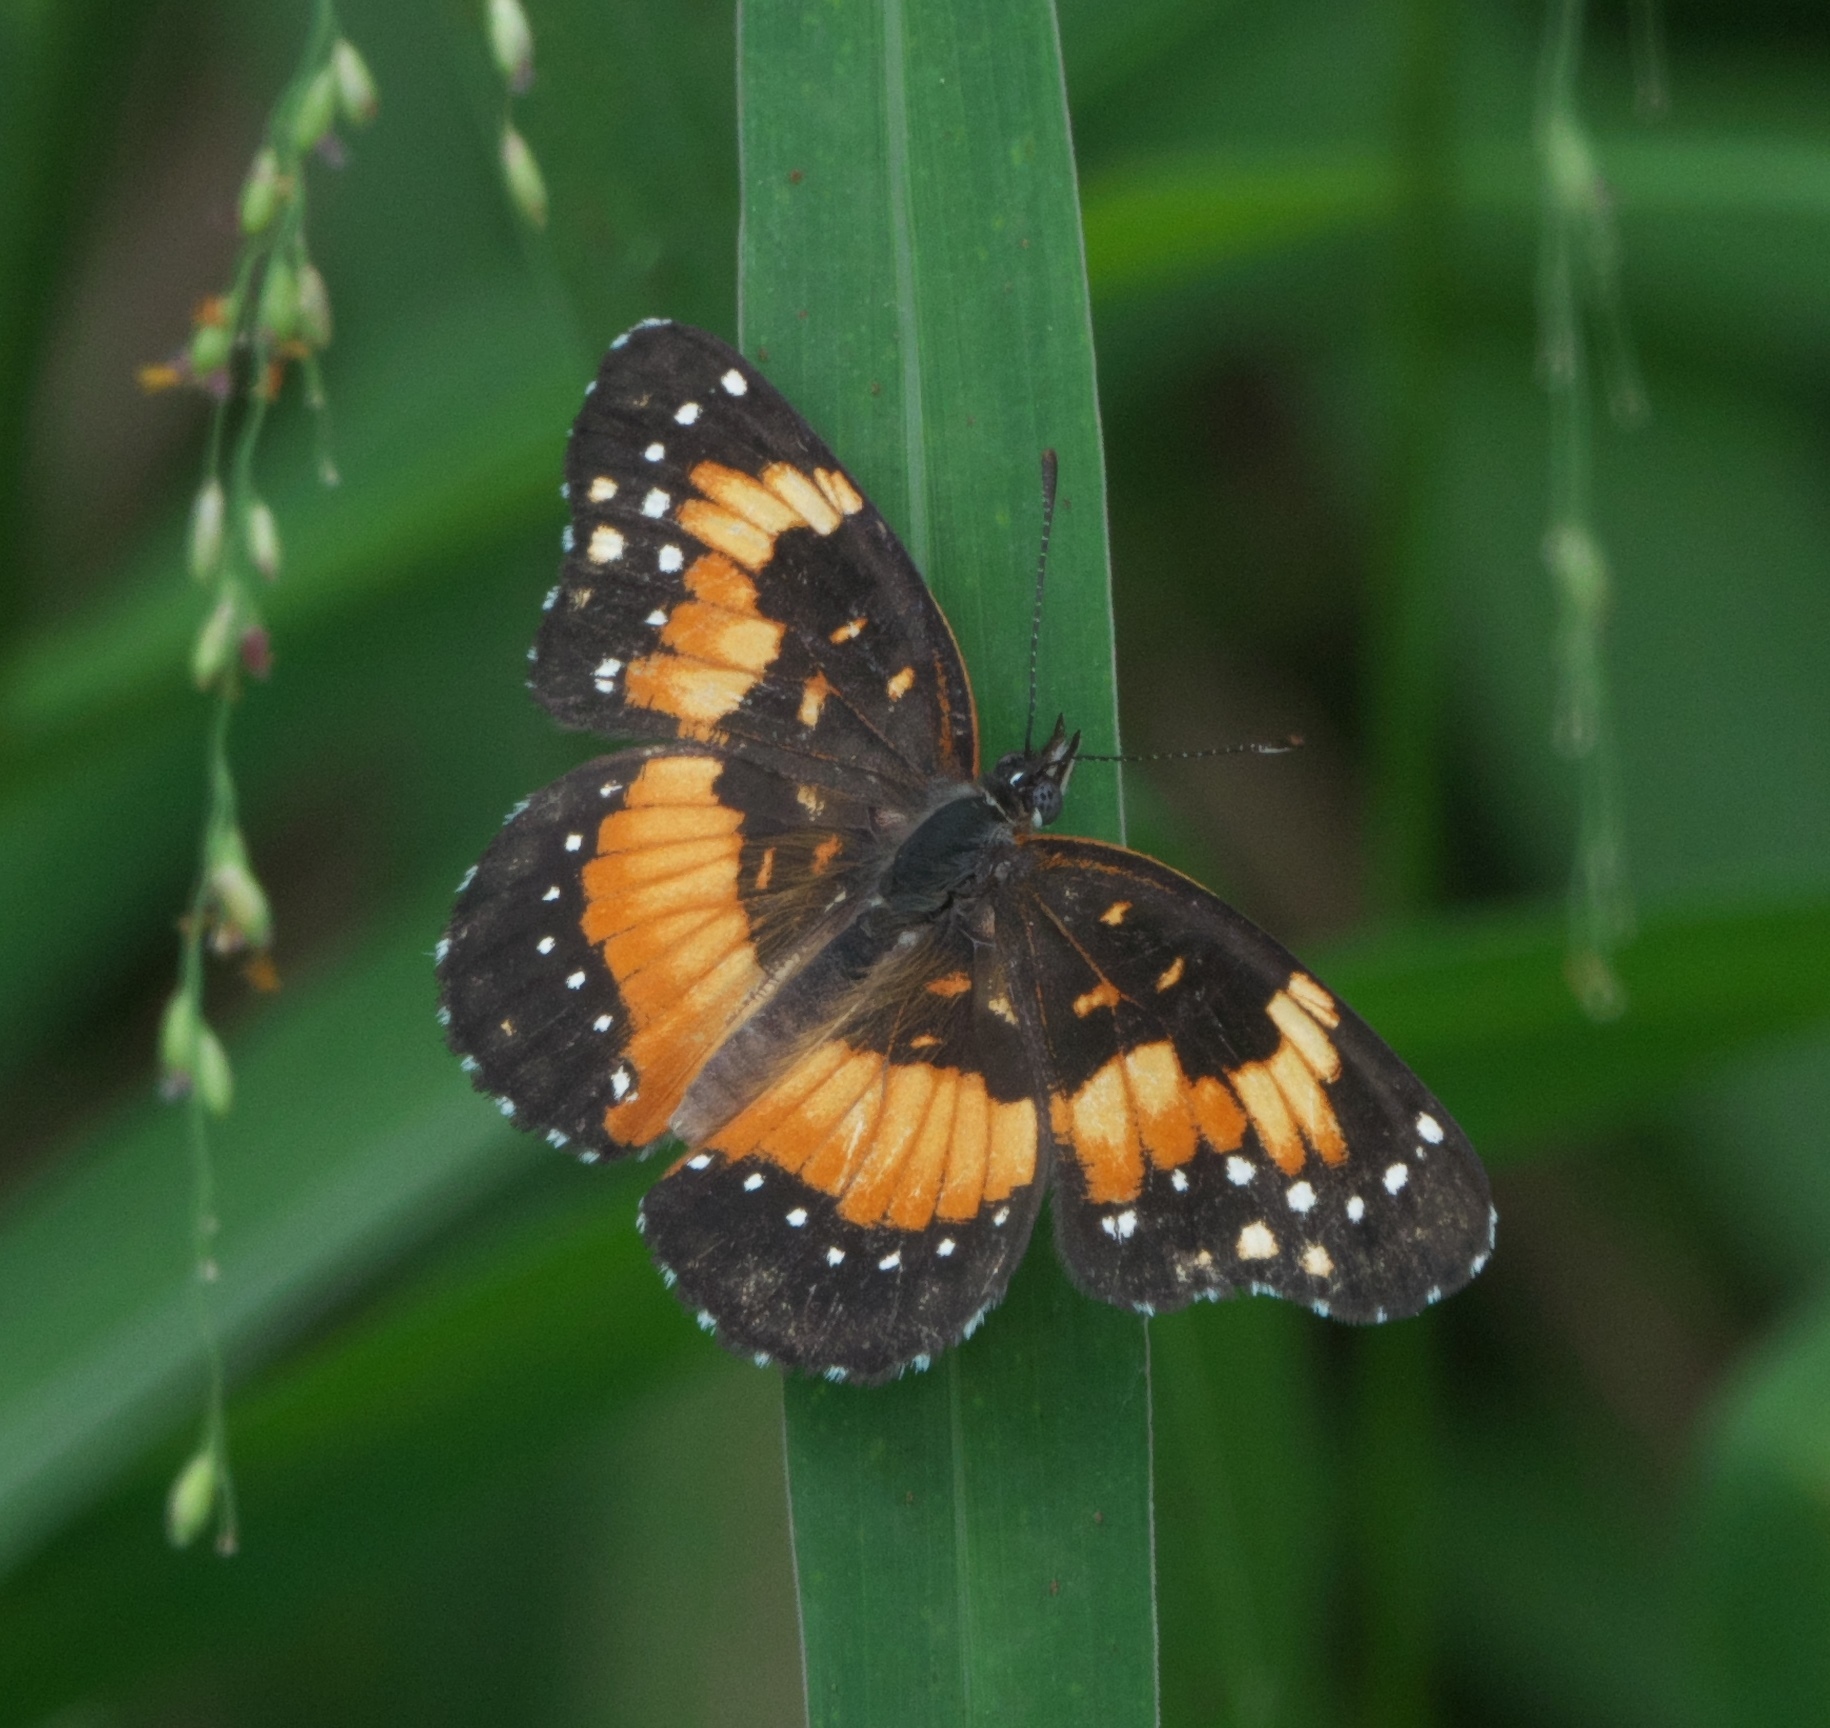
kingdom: Animalia
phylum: Arthropoda
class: Insecta
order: Lepidoptera
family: Nymphalidae
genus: Chlosyne
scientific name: Chlosyne lacinia
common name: Bordered patch
